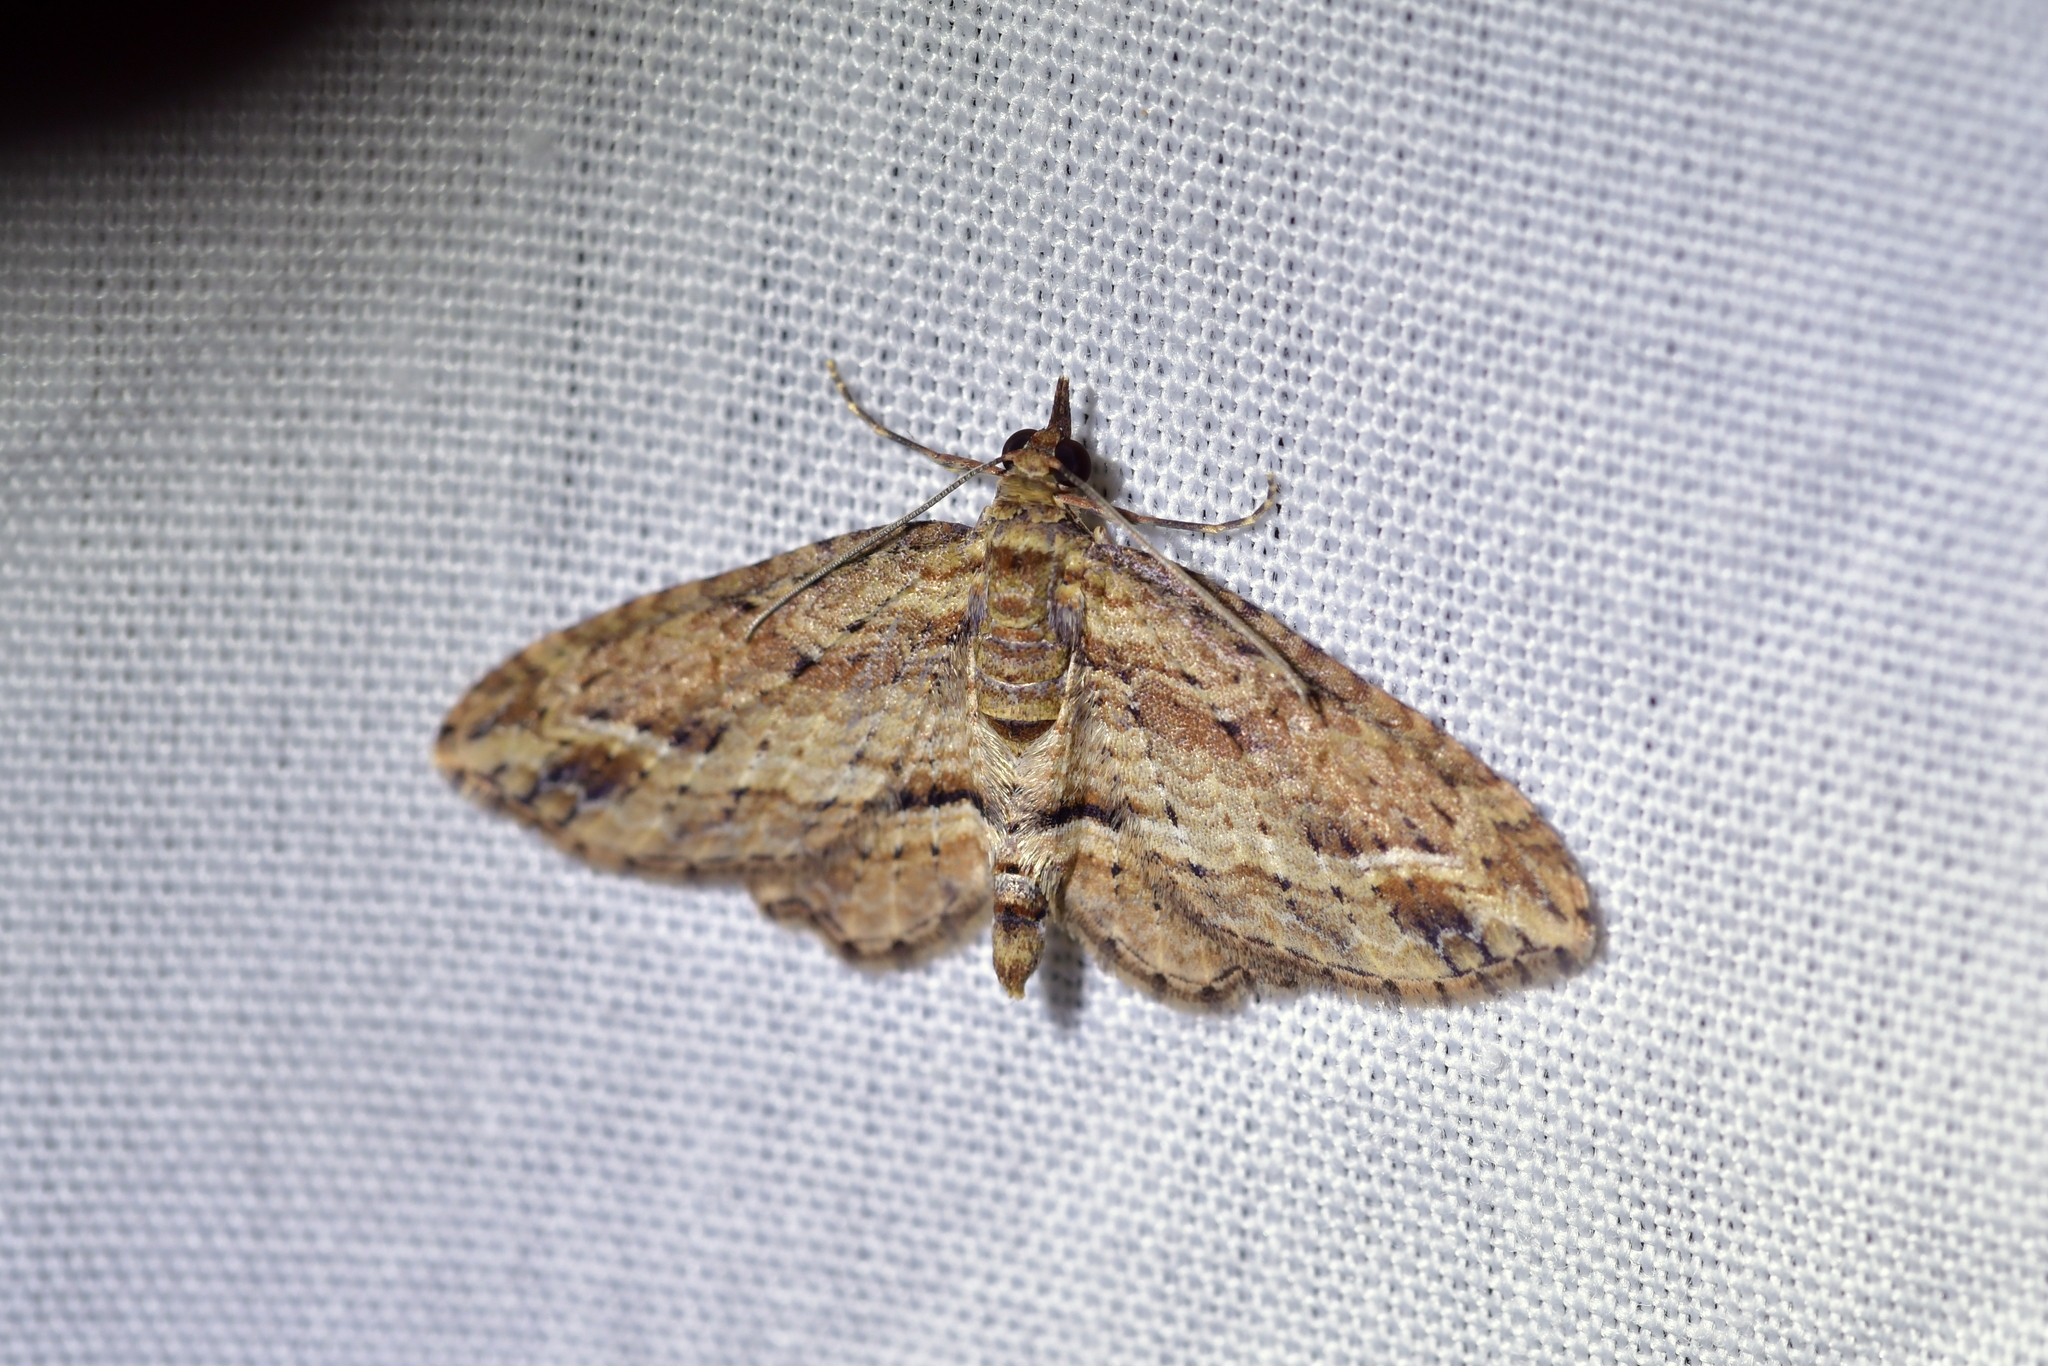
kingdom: Animalia
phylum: Arthropoda
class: Insecta
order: Lepidoptera
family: Geometridae
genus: Chloroclystis
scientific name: Chloroclystis filata
